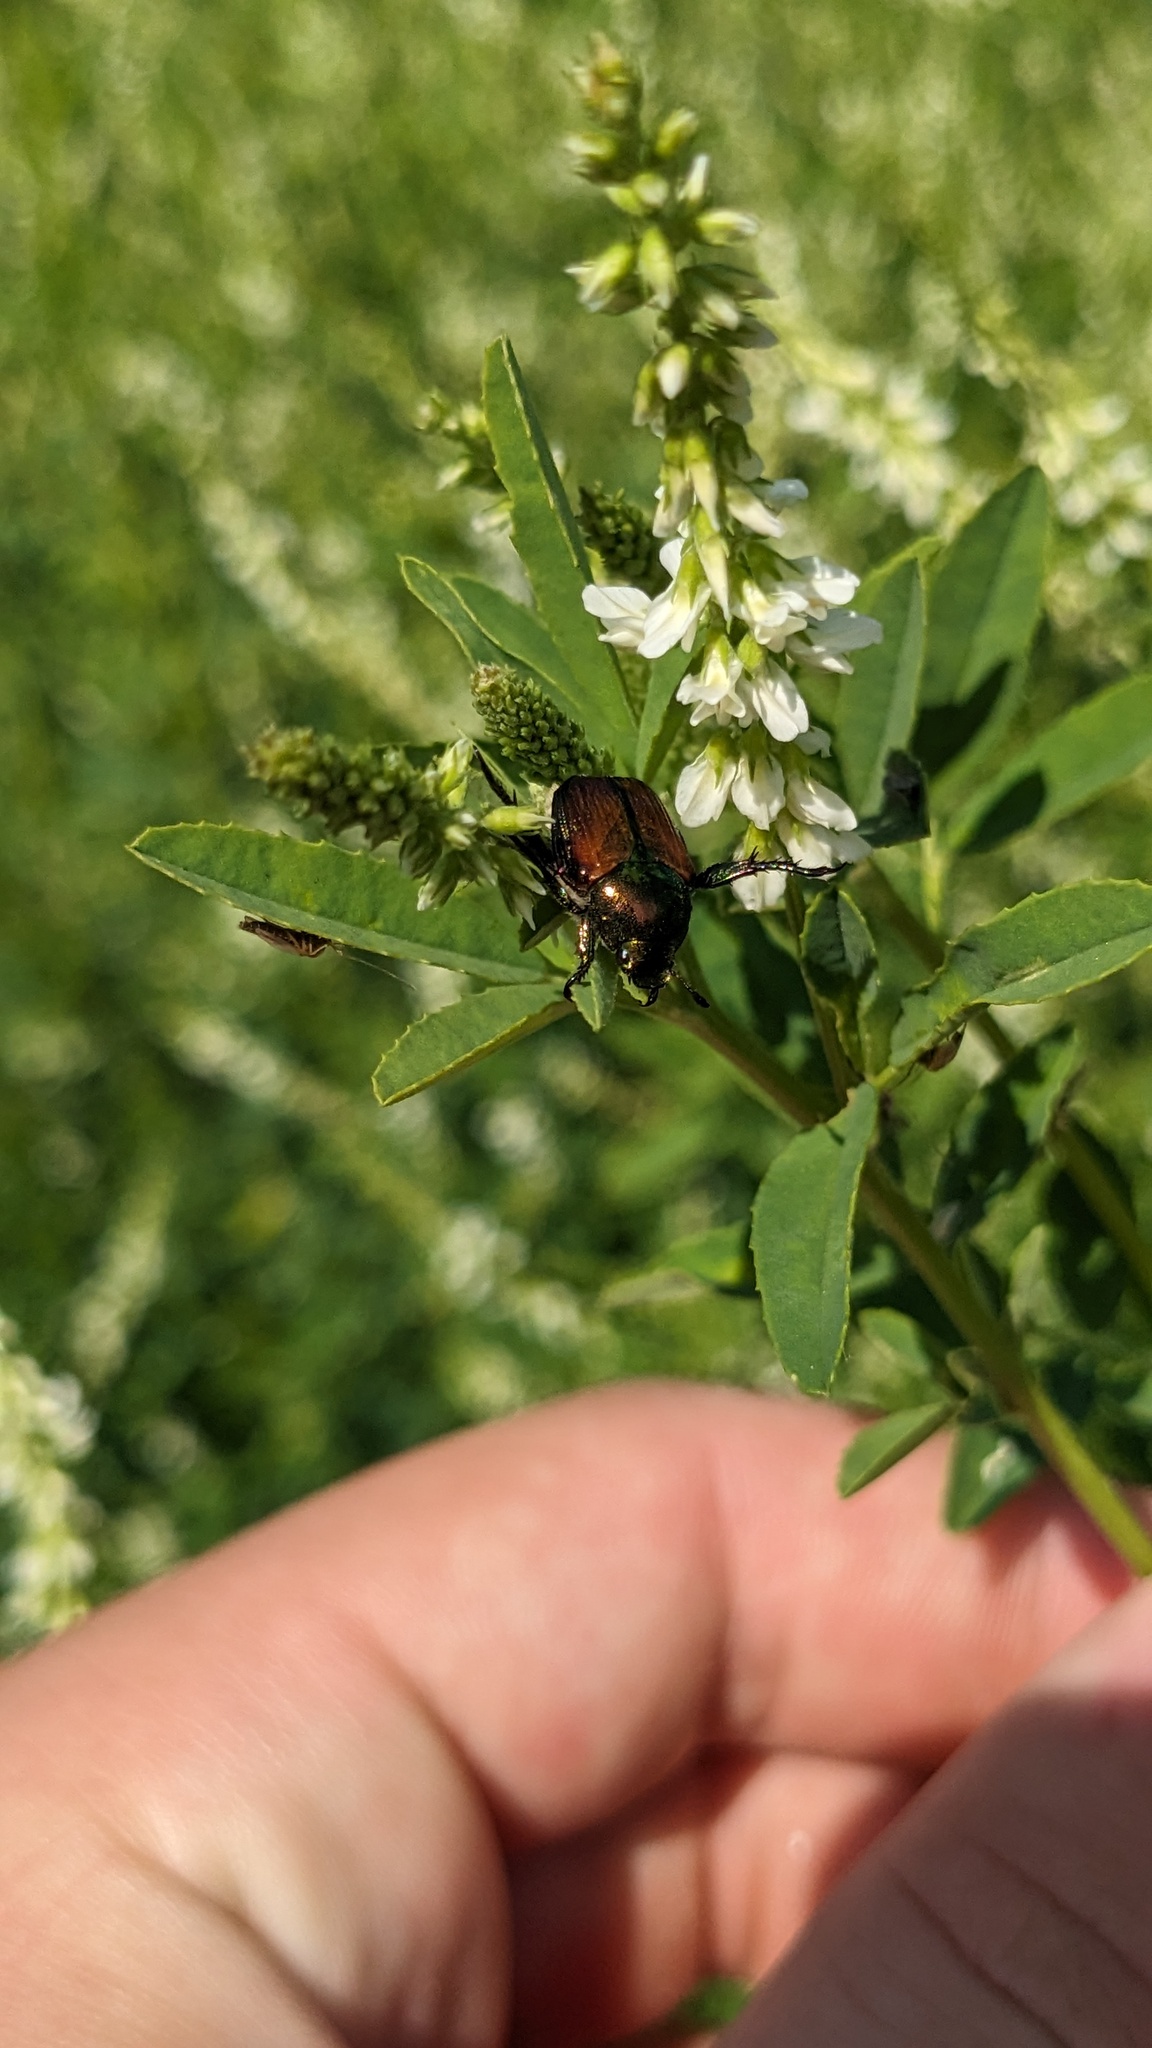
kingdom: Animalia
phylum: Arthropoda
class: Insecta
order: Coleoptera
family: Scarabaeidae
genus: Popillia
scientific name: Popillia japonica
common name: Japanese beetle
